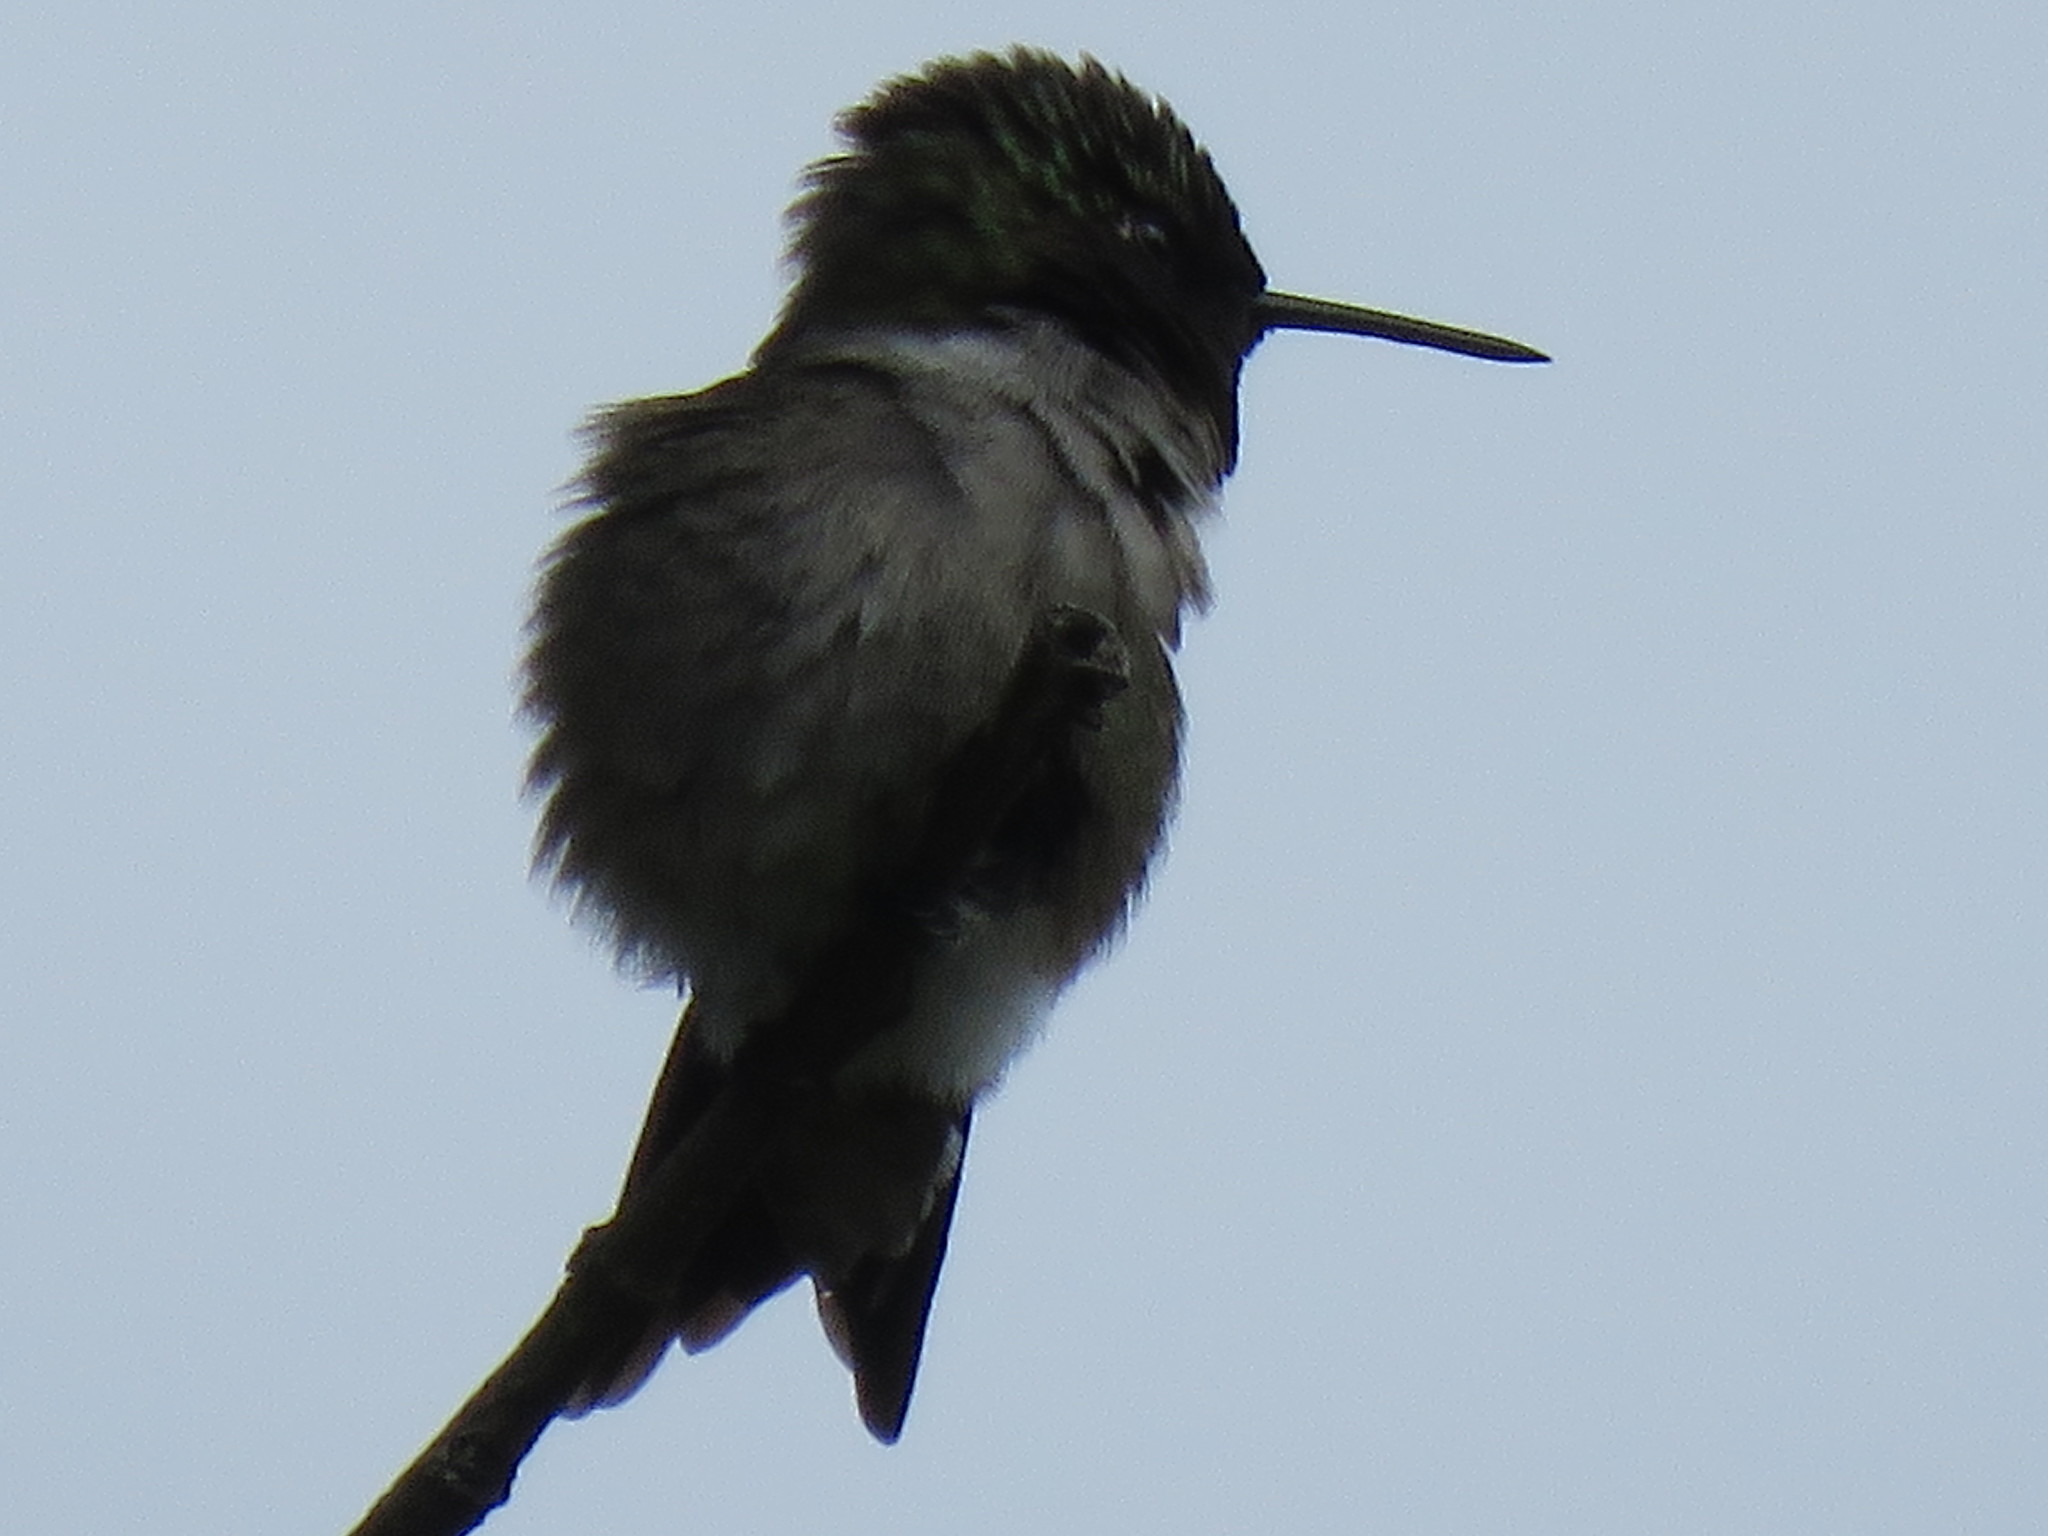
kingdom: Animalia
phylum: Chordata
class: Aves
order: Apodiformes
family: Trochilidae
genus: Archilochus
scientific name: Archilochus colubris
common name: Ruby-throated hummingbird
